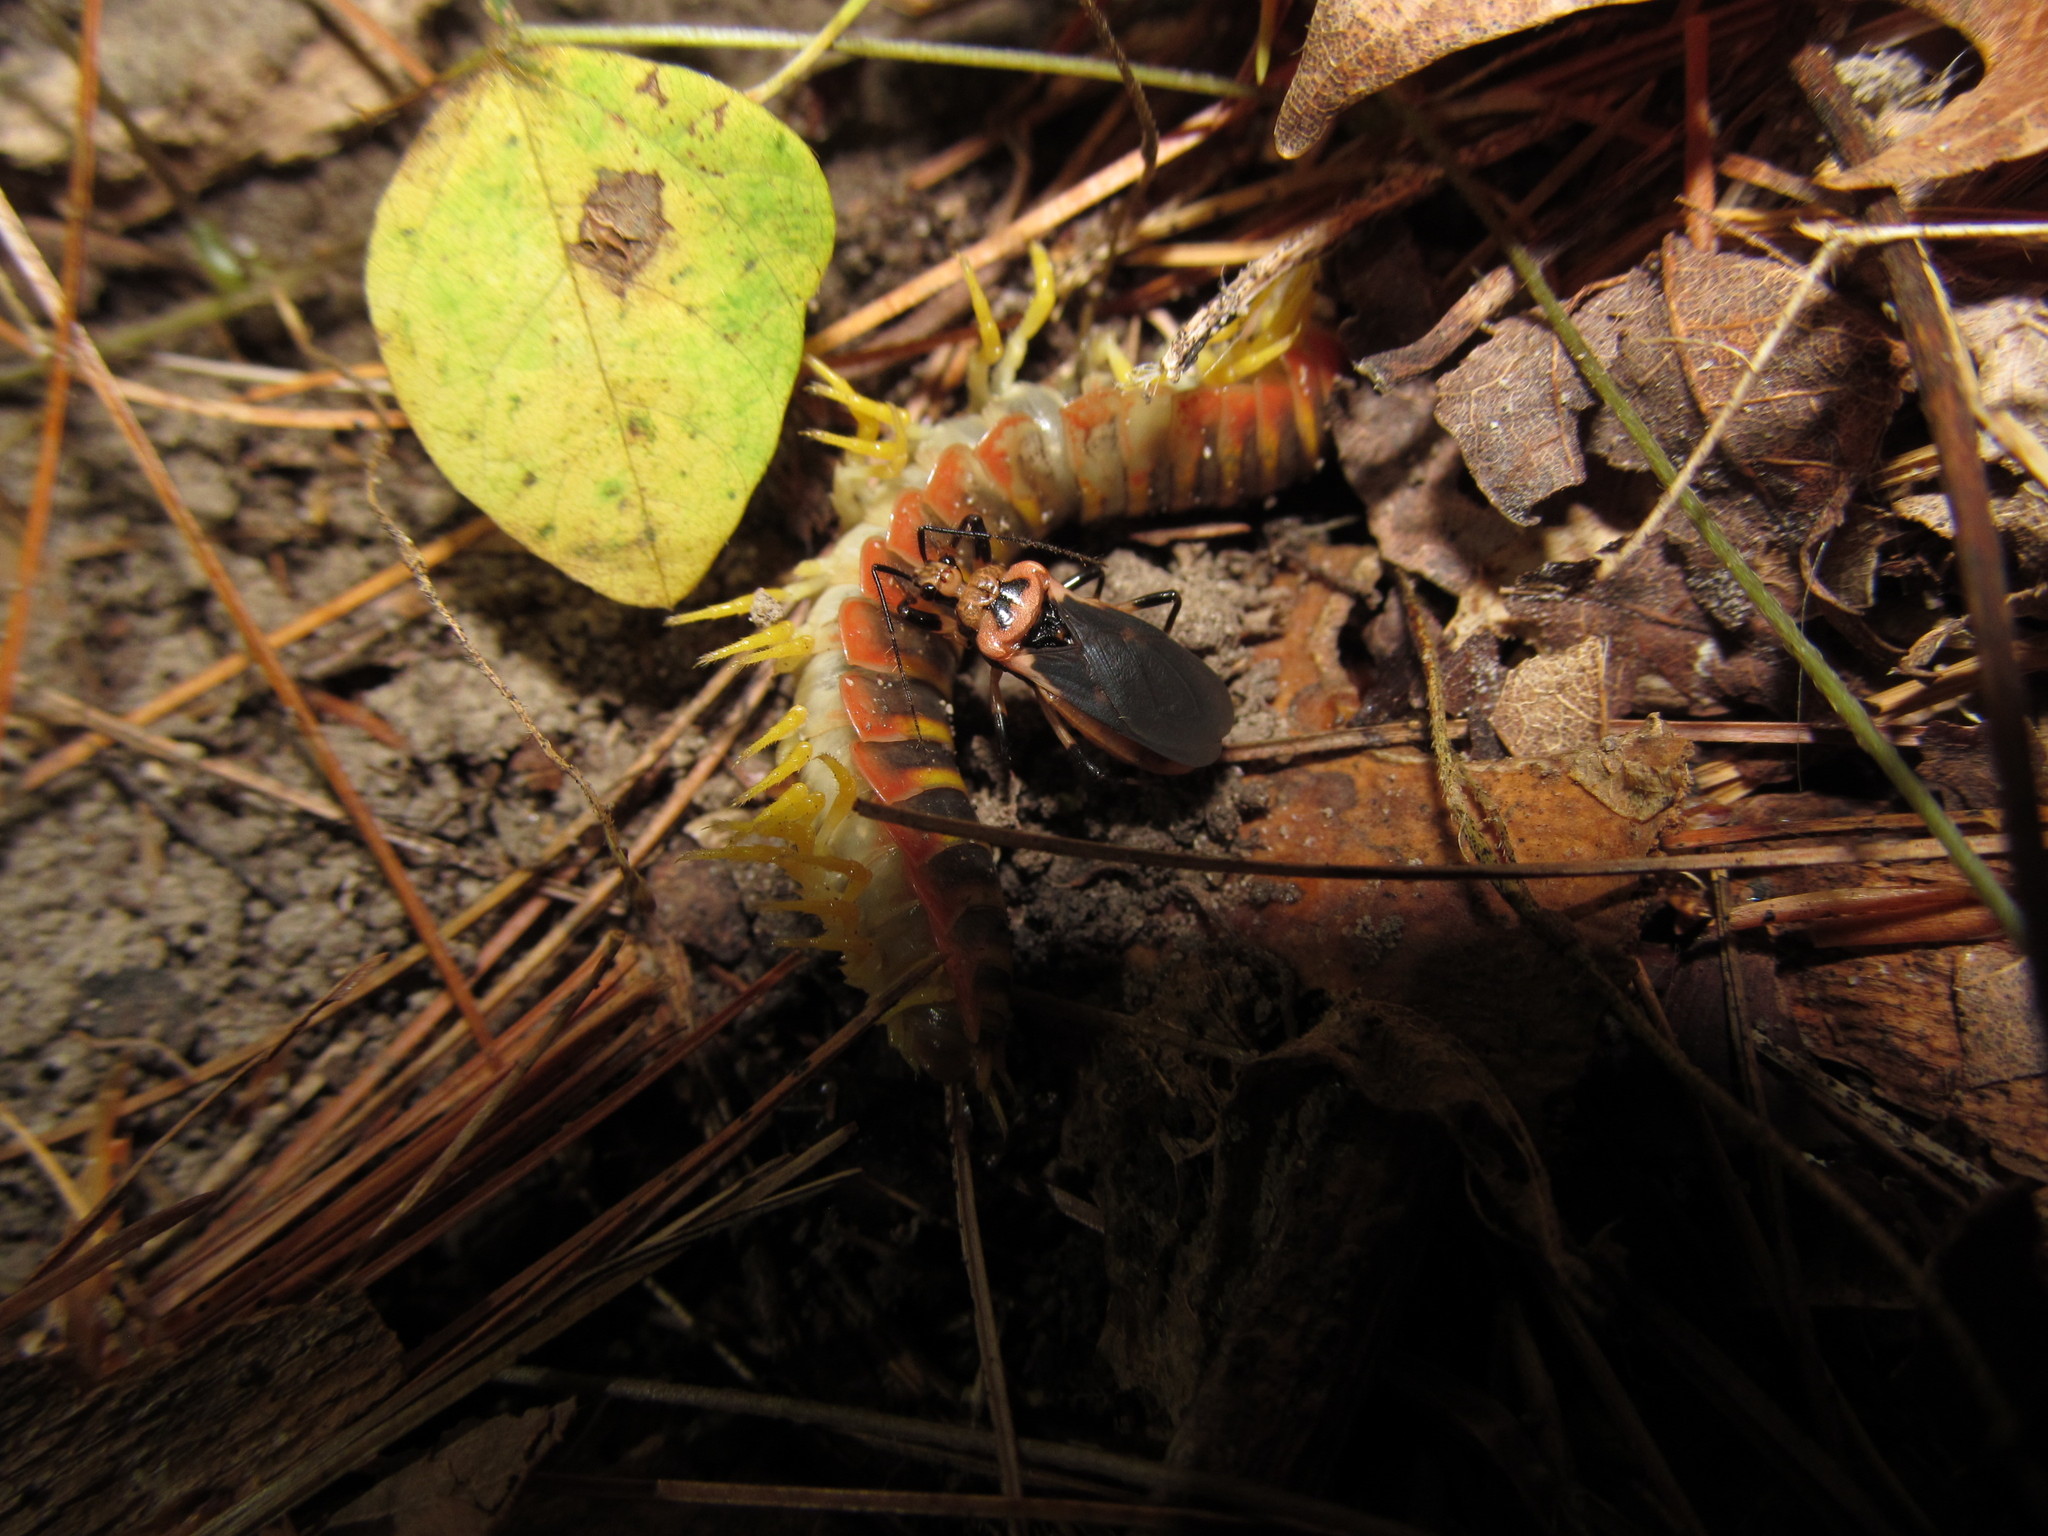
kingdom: Animalia
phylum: Arthropoda
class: Insecta
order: Hemiptera
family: Reduviidae
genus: Rhiginia
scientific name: Rhiginia cruciata
